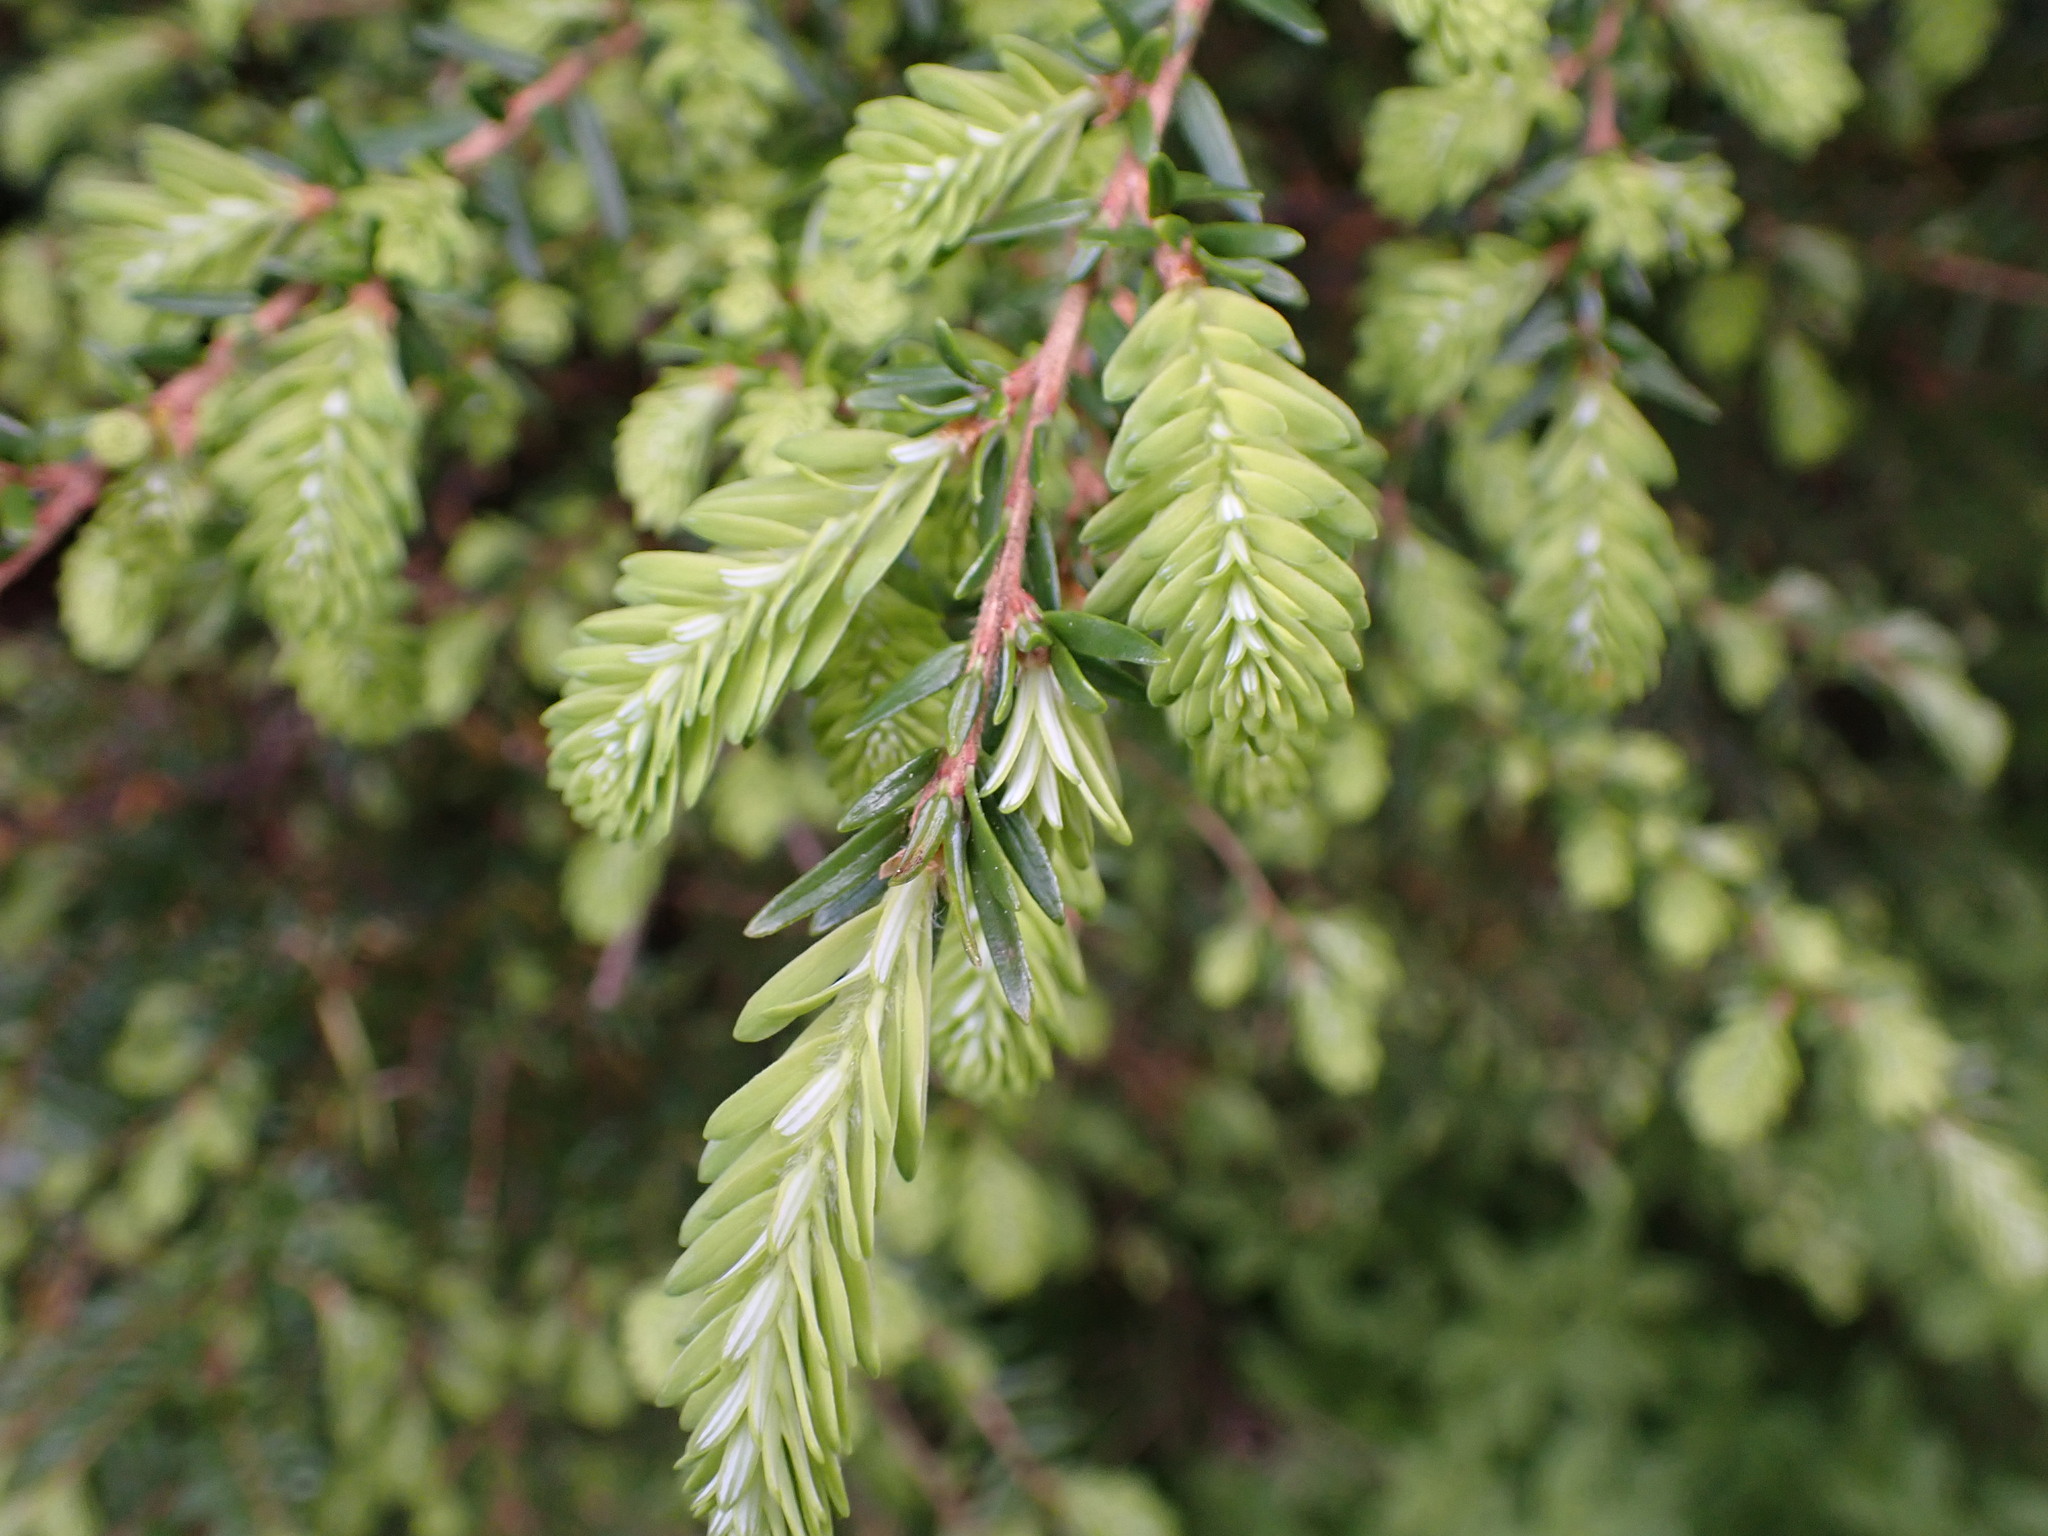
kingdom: Plantae
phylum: Tracheophyta
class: Pinopsida
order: Pinales
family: Pinaceae
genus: Tsuga
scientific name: Tsuga heterophylla
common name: Western hemlock
